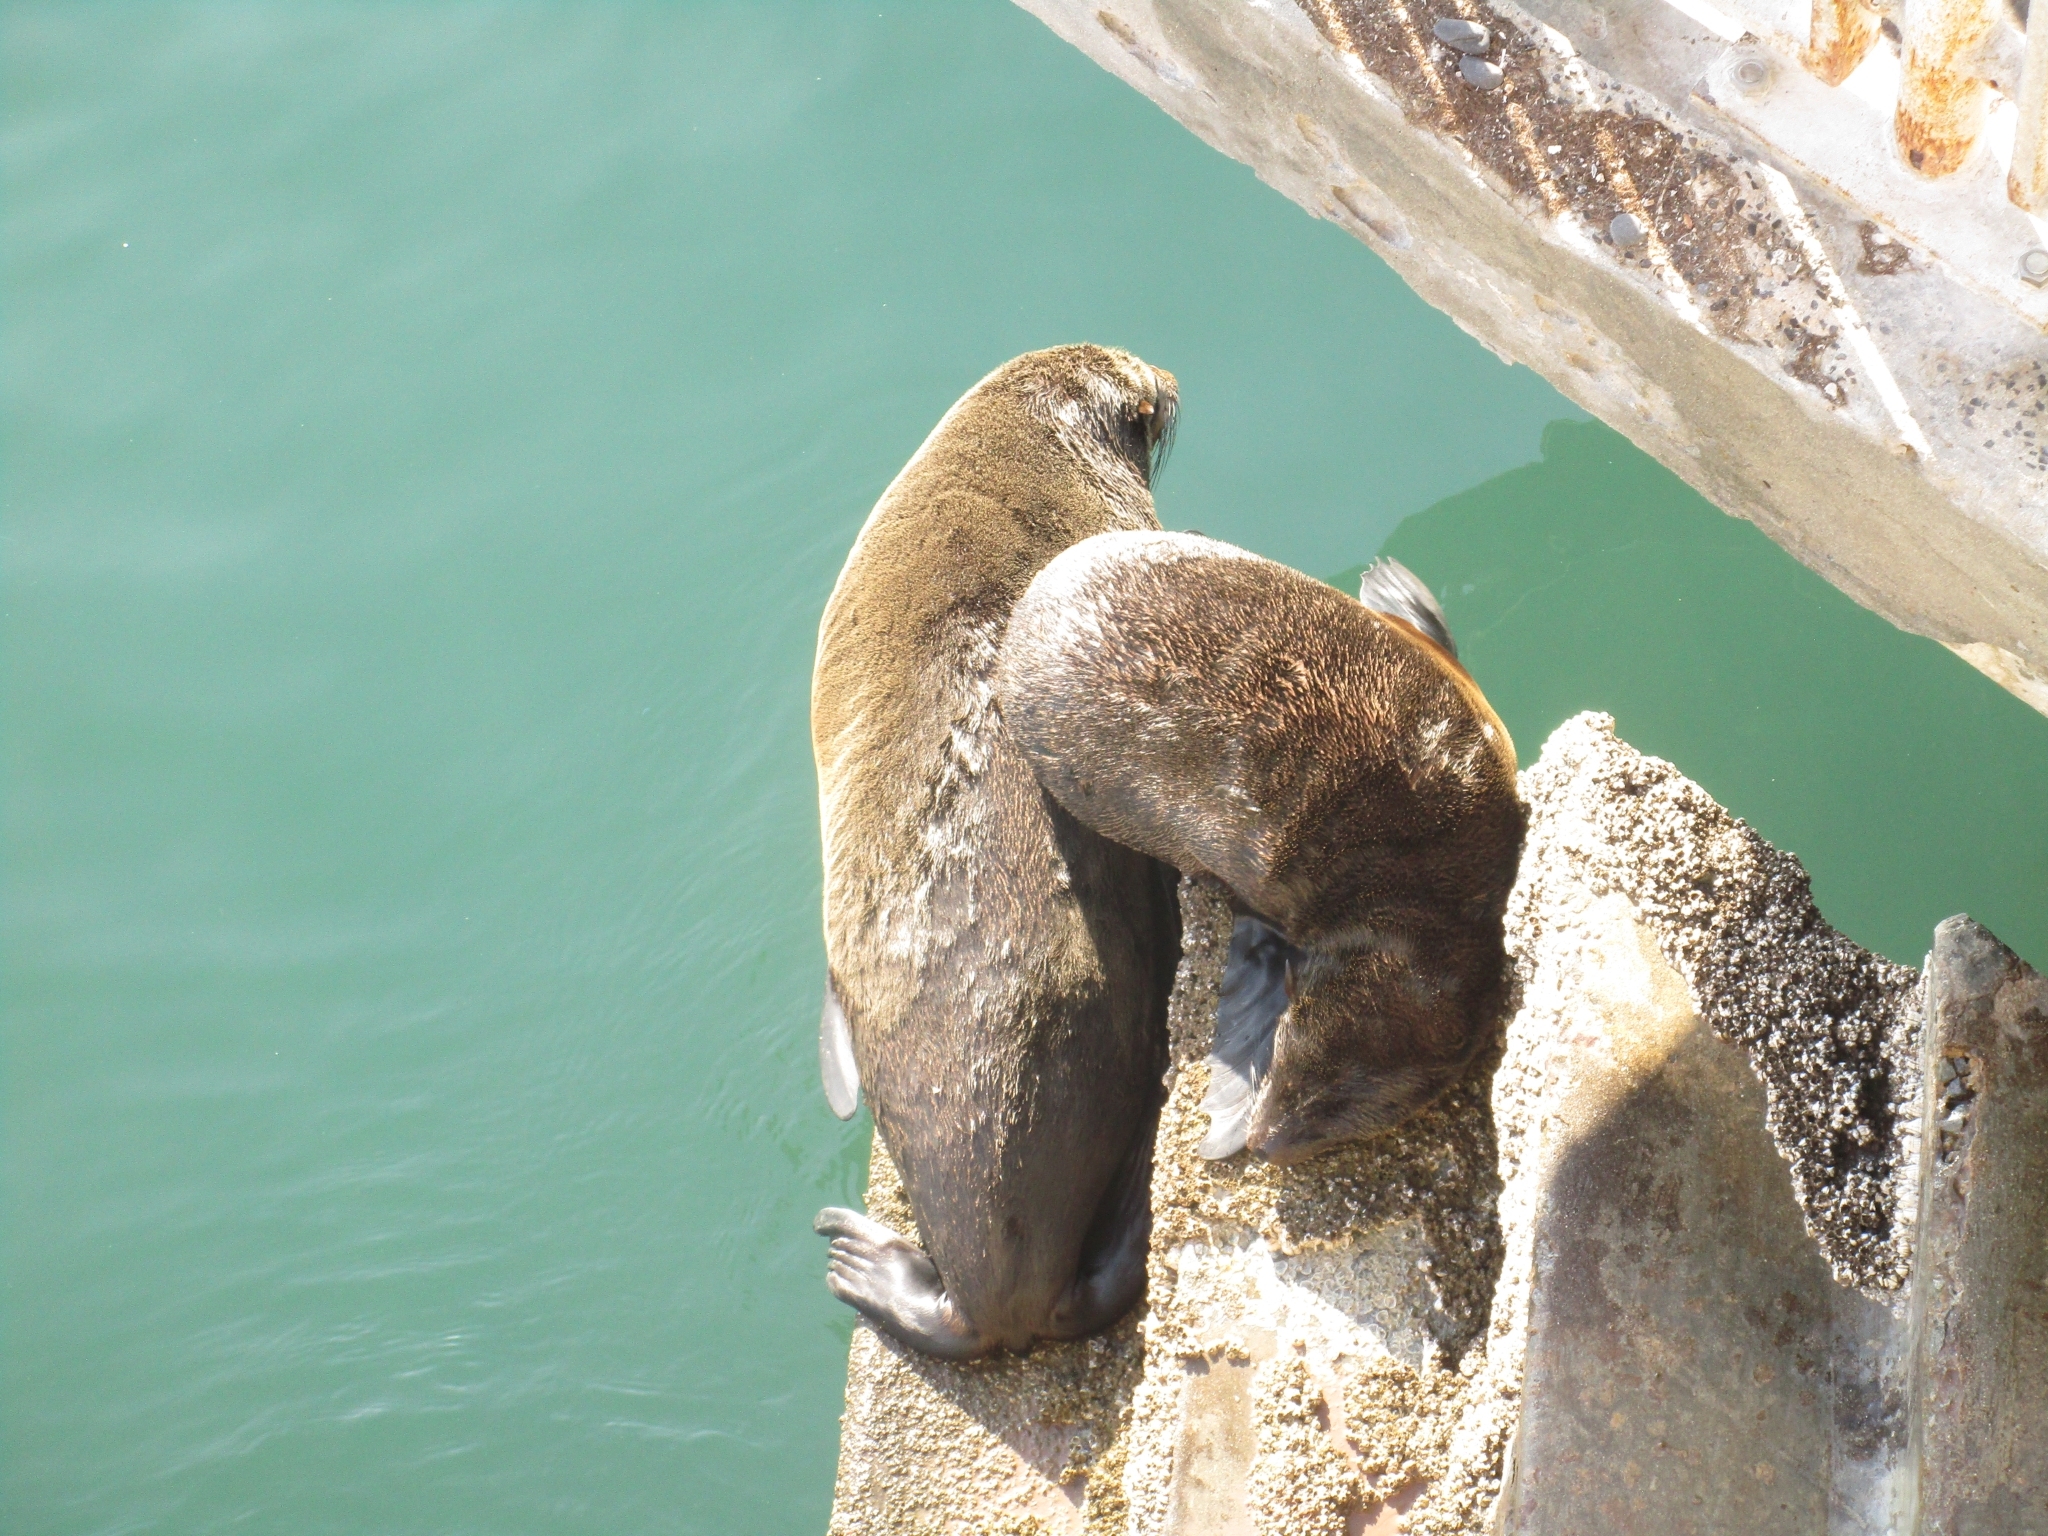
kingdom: Animalia
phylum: Chordata
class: Mammalia
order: Carnivora
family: Otariidae
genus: Arctocephalus
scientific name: Arctocephalus pusillus
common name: Brown fur seal
